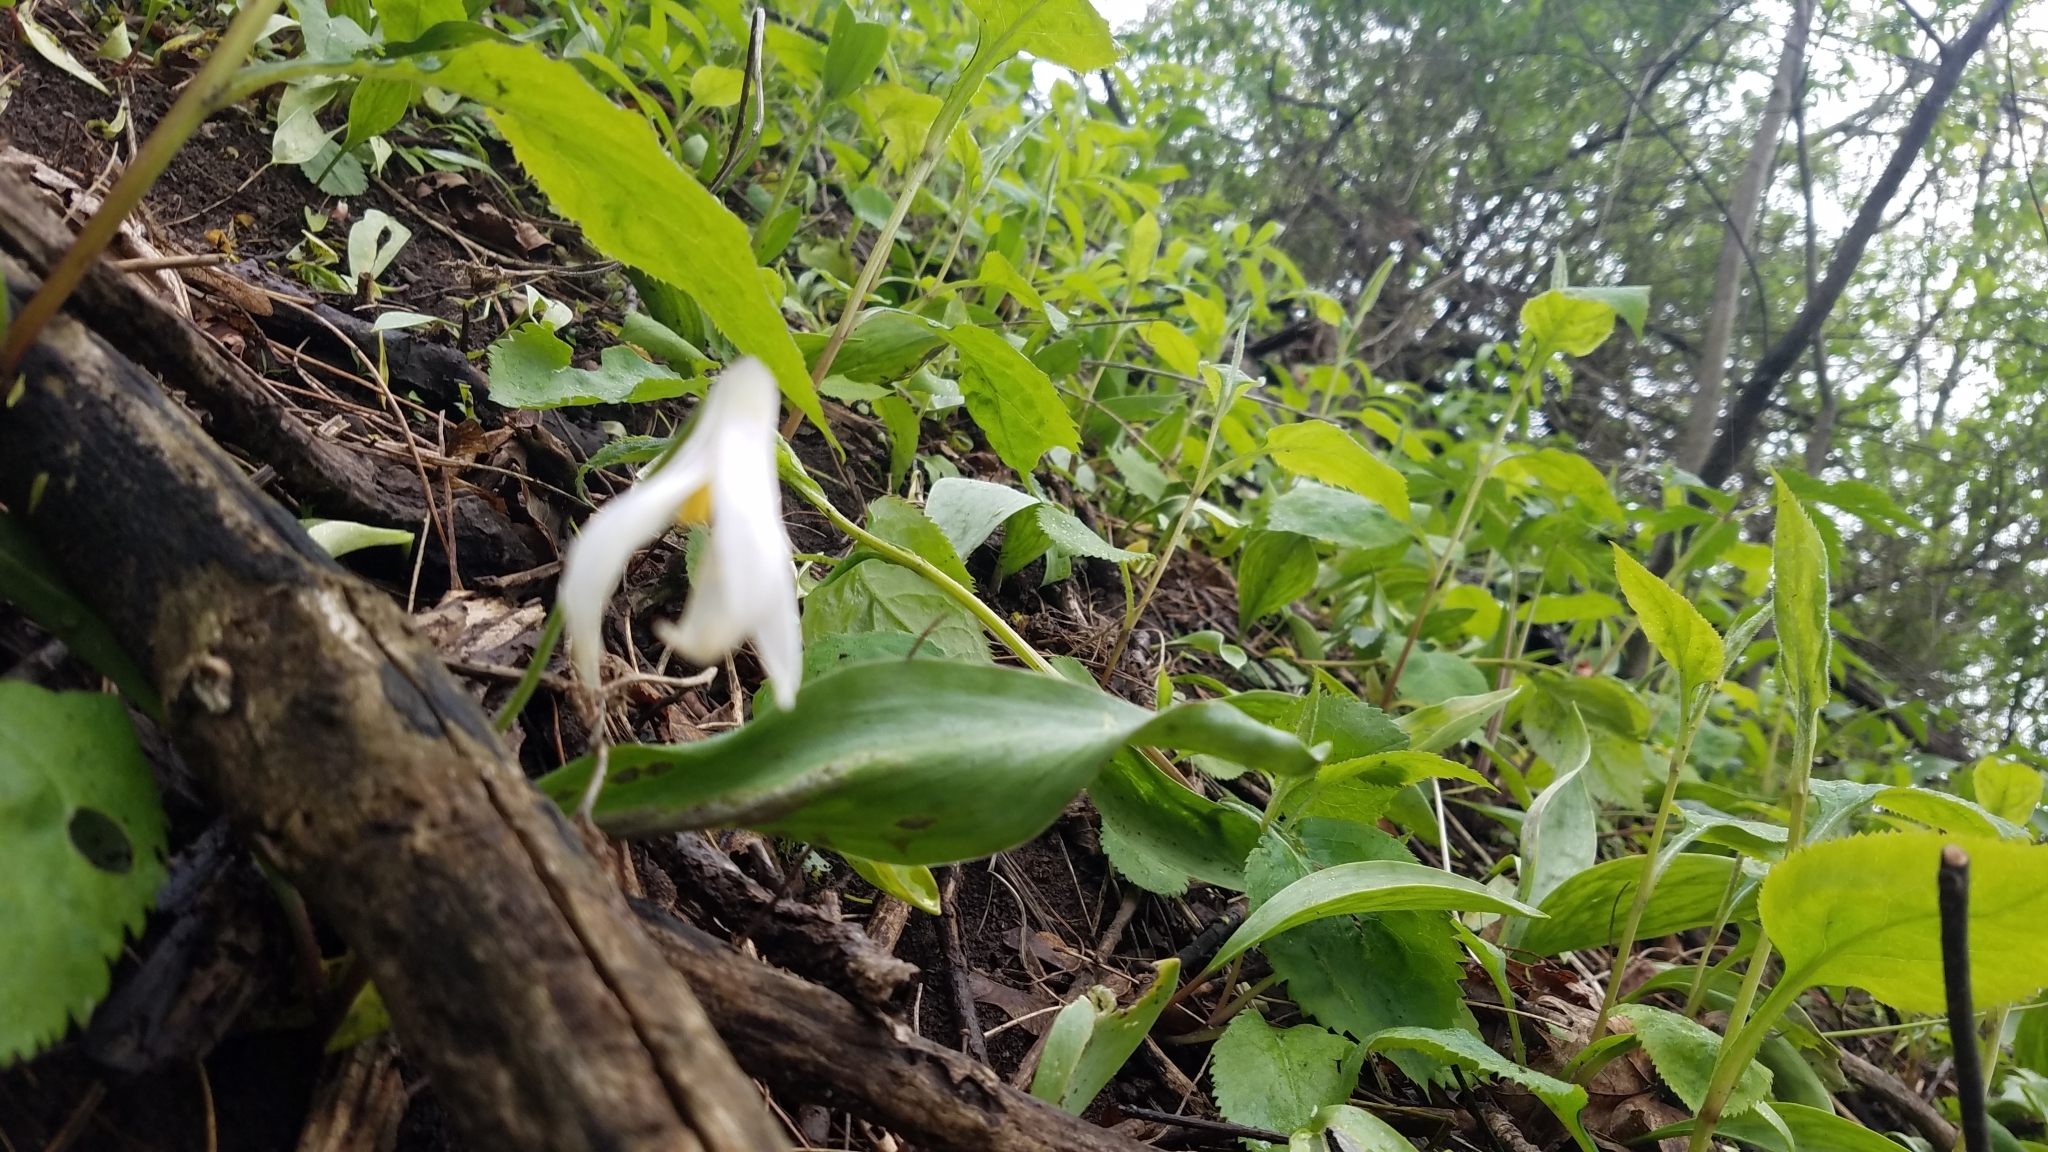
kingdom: Plantae
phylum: Tracheophyta
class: Liliopsida
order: Liliales
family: Liliaceae
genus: Erythronium
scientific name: Erythronium albidum
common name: White trout-lily
